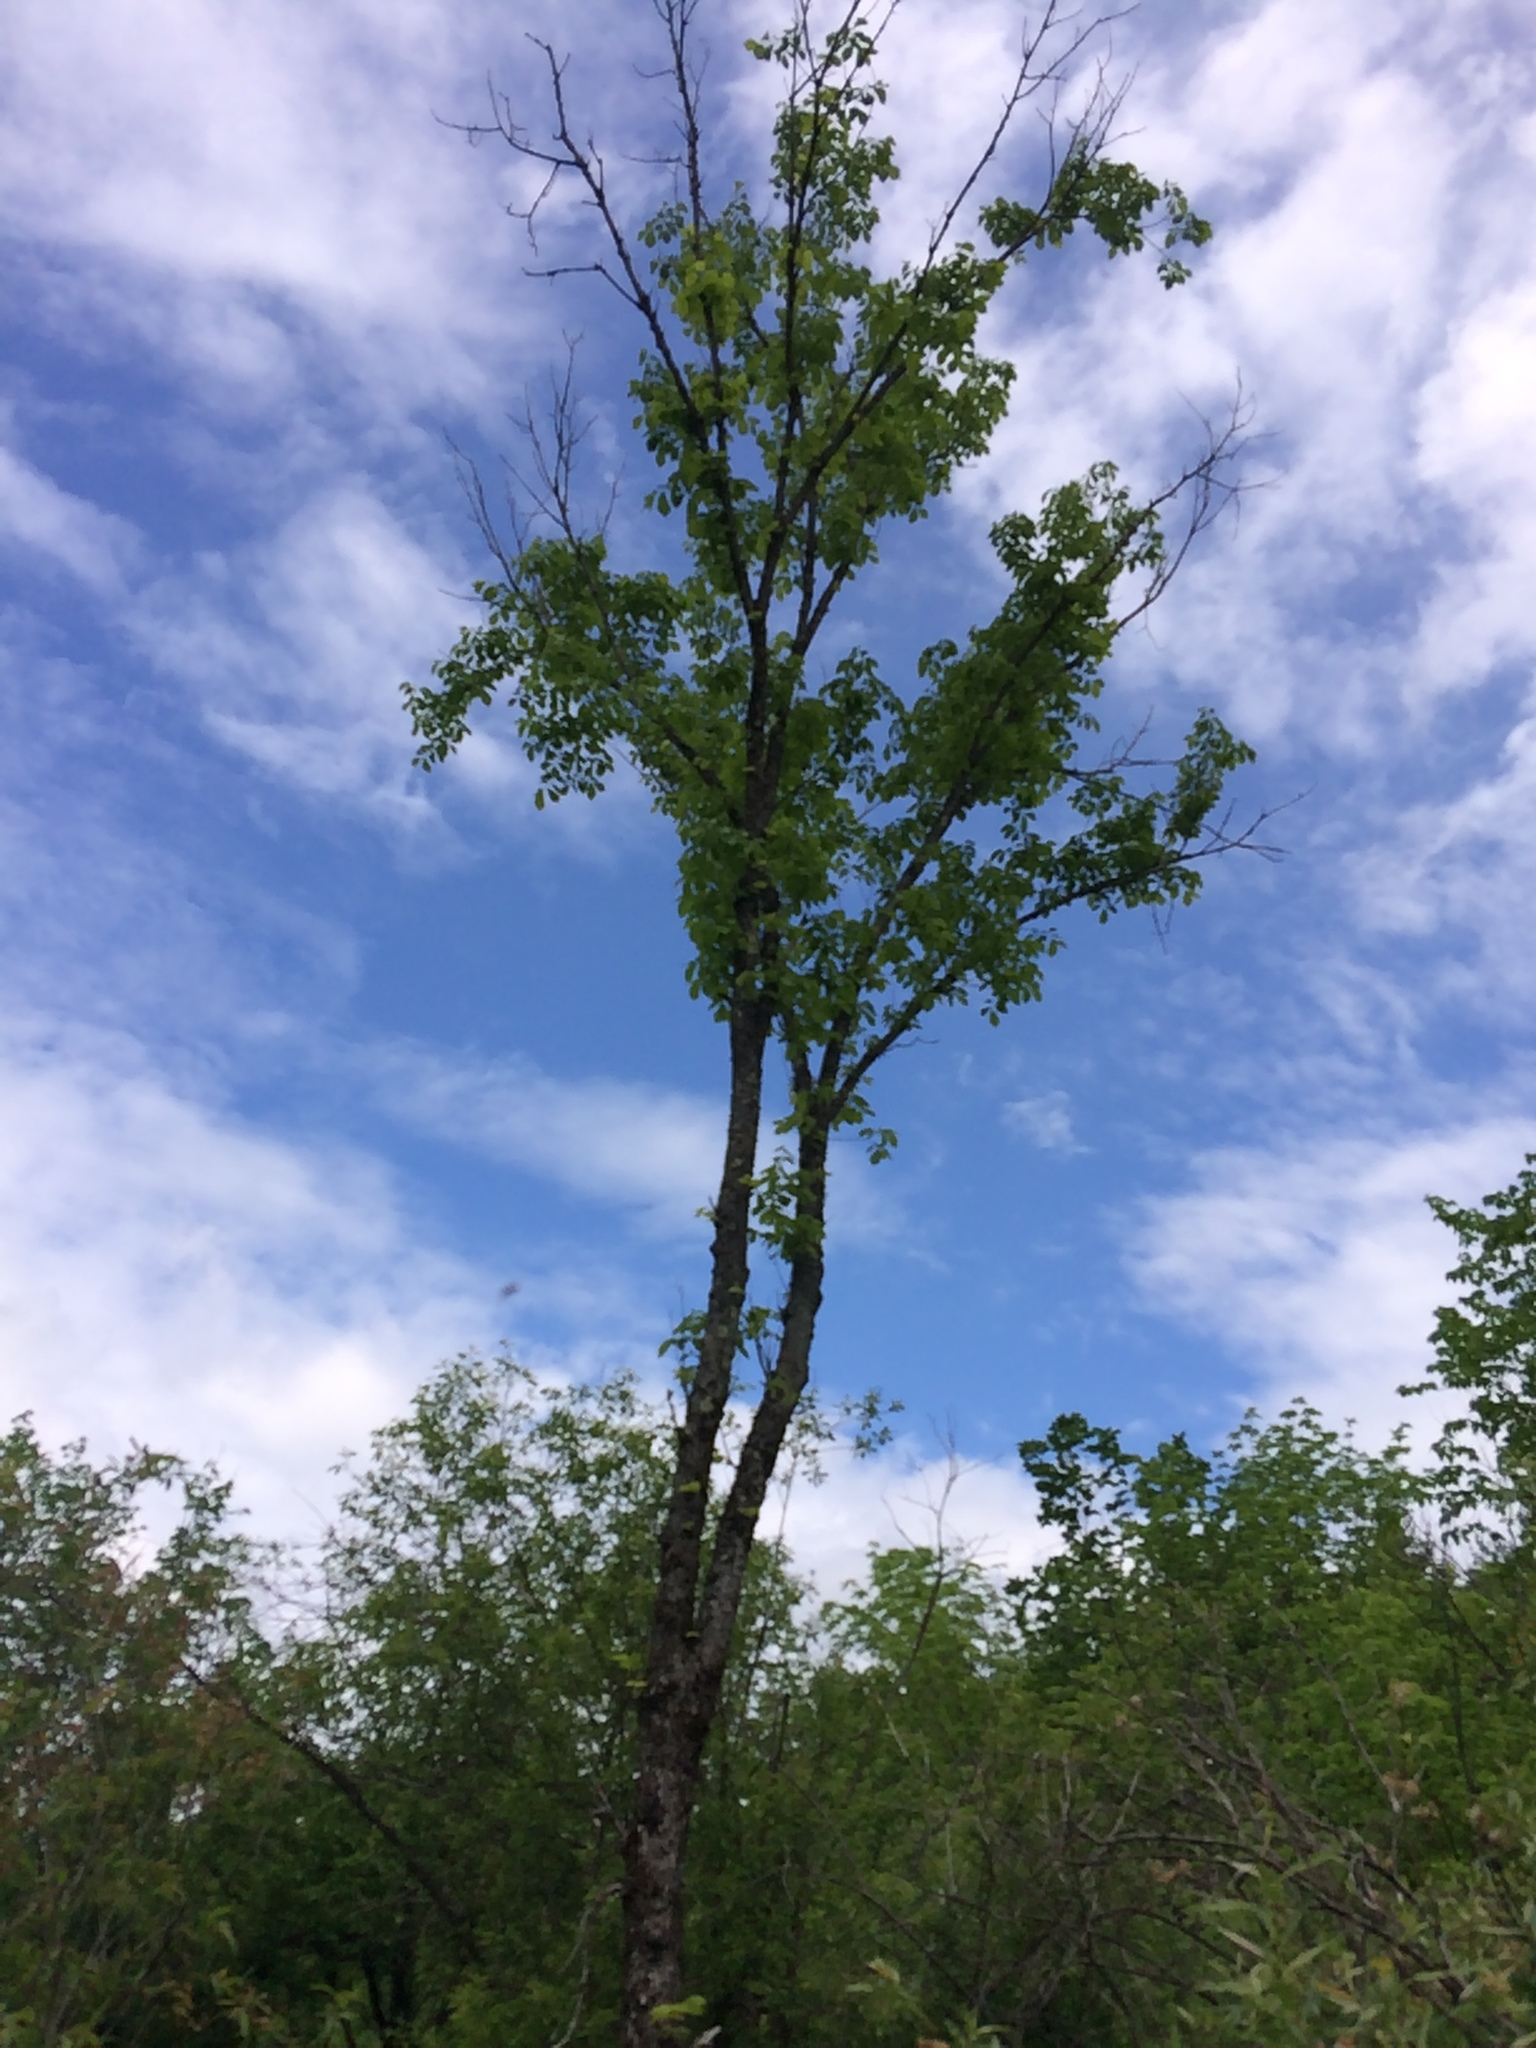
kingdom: Plantae
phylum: Tracheophyta
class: Magnoliopsida
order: Rosales
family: Ulmaceae
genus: Ulmus
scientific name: Ulmus americana
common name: American elm
